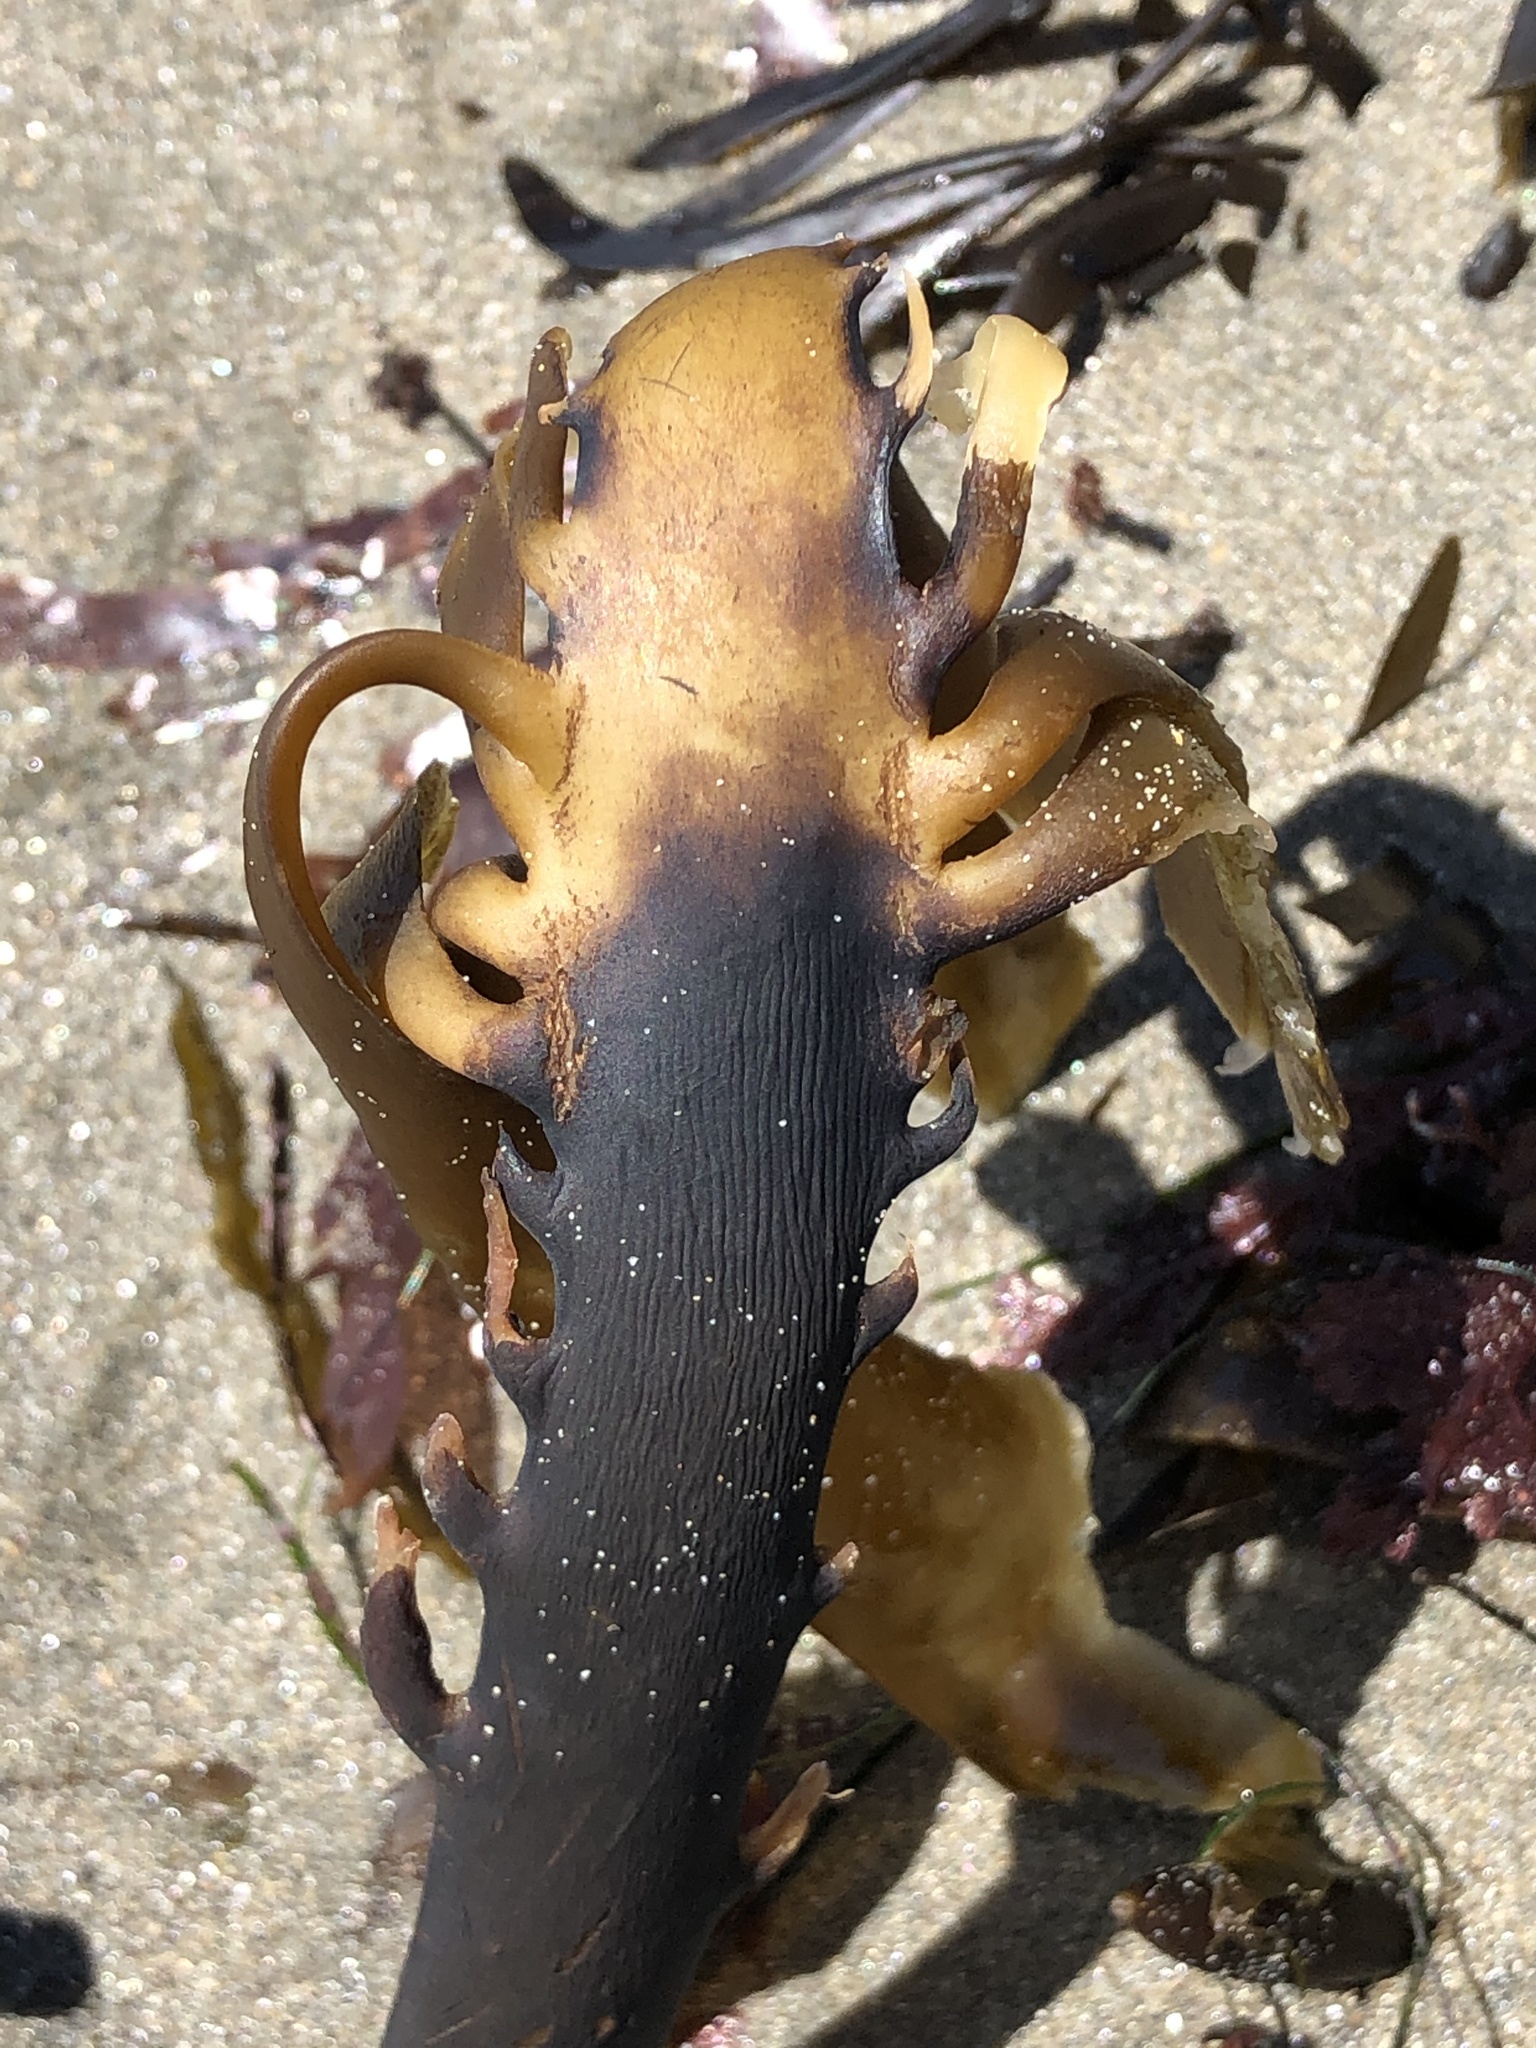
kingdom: Chromista
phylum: Ochrophyta
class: Phaeophyceae
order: Laminariales
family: Alariaceae
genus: Pterygophora
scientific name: Pterygophora californica
